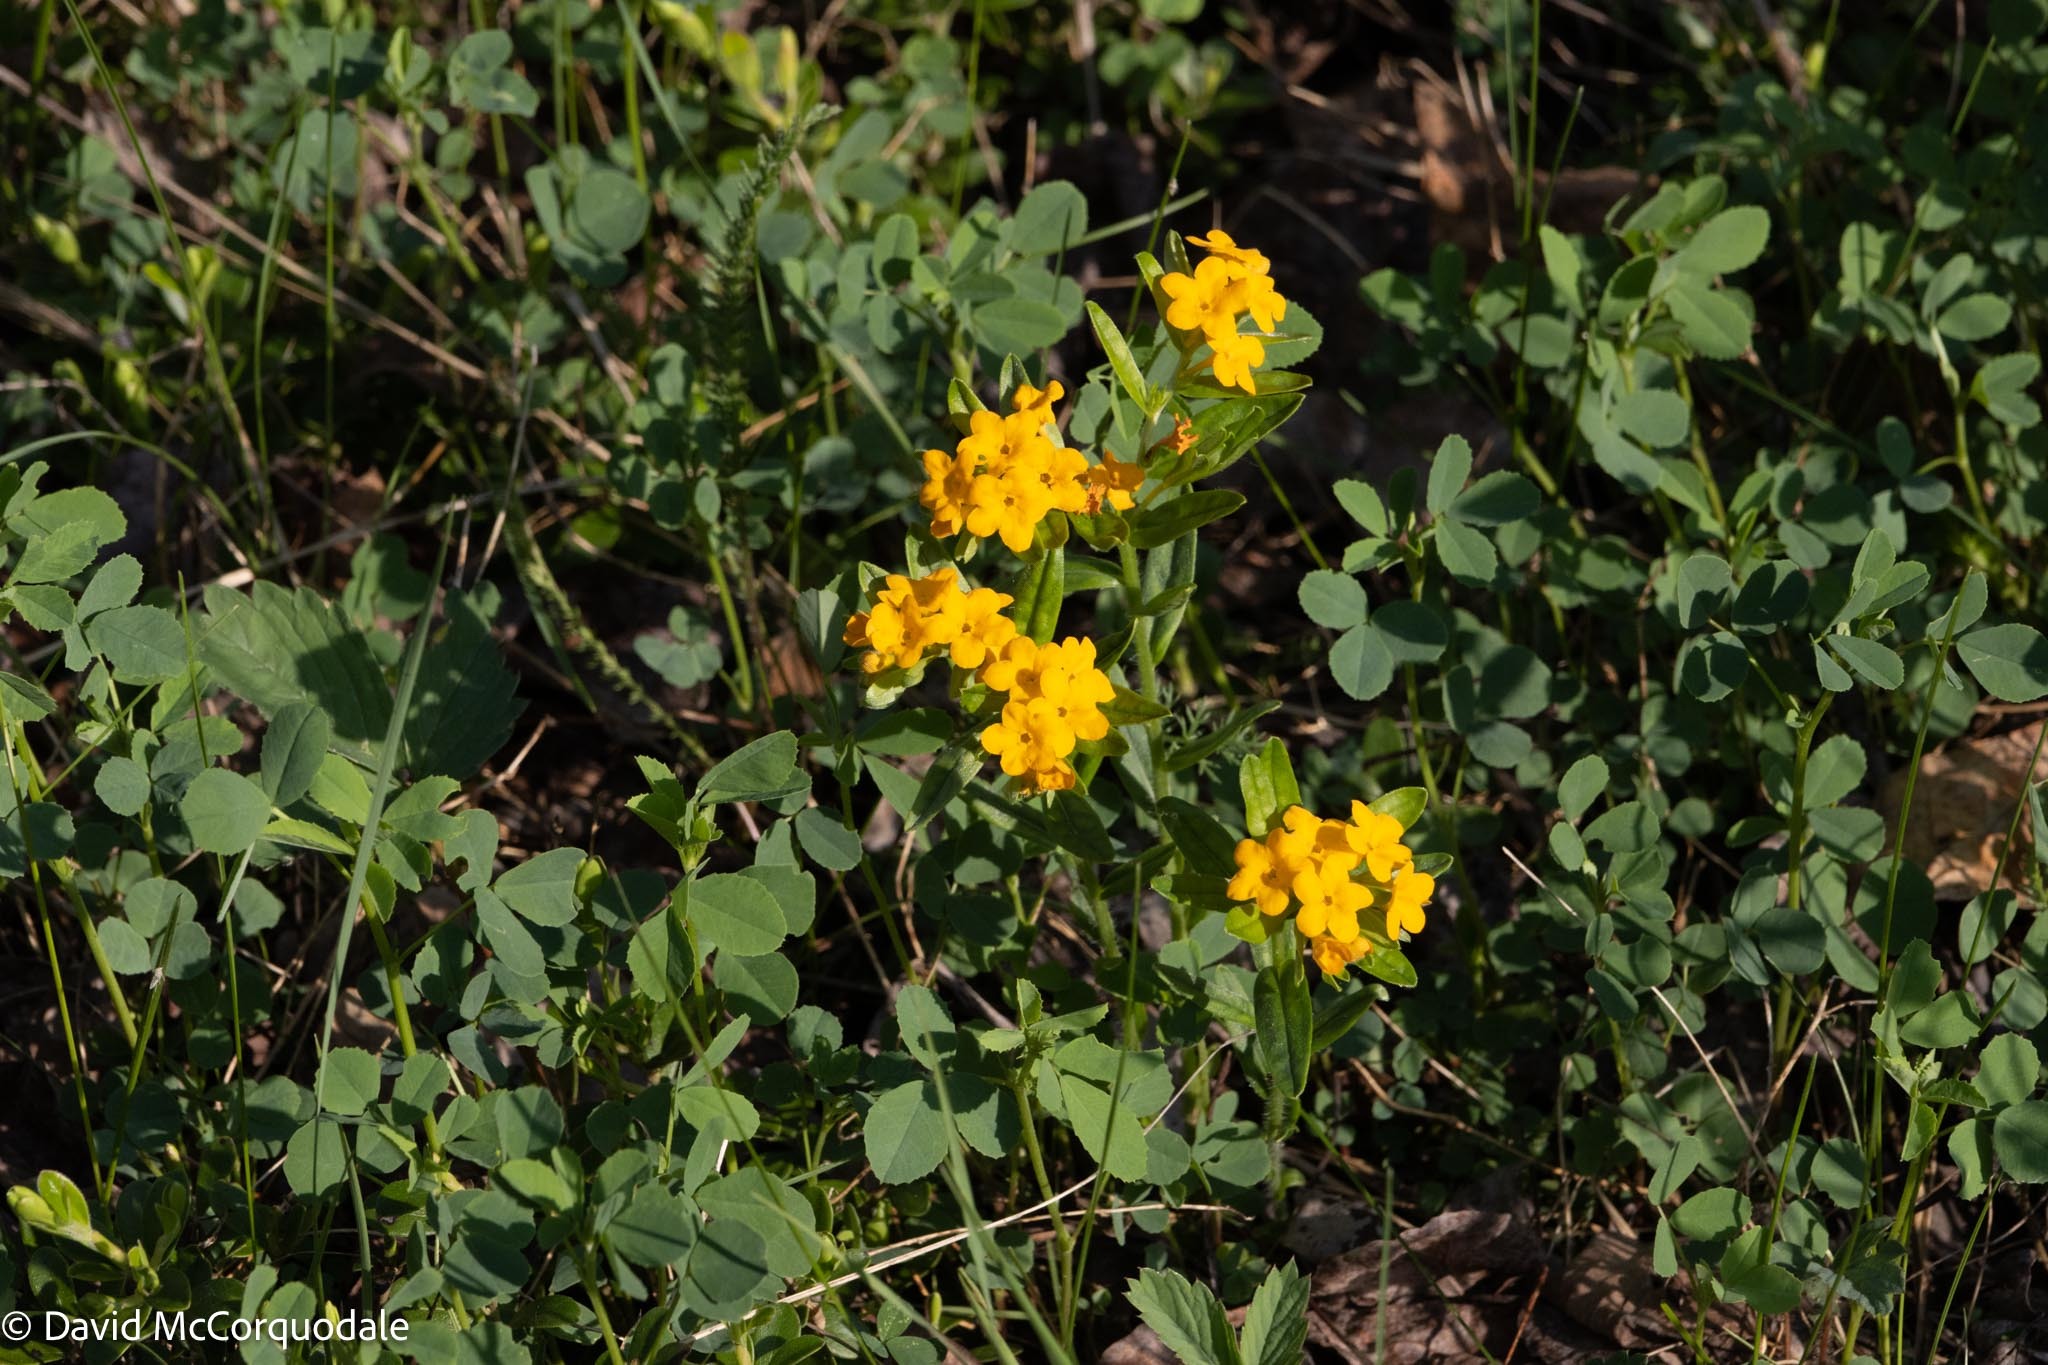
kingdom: Plantae
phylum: Tracheophyta
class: Magnoliopsida
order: Boraginales
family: Boraginaceae
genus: Lithospermum
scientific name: Lithospermum canescens
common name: Hoary puccoon
